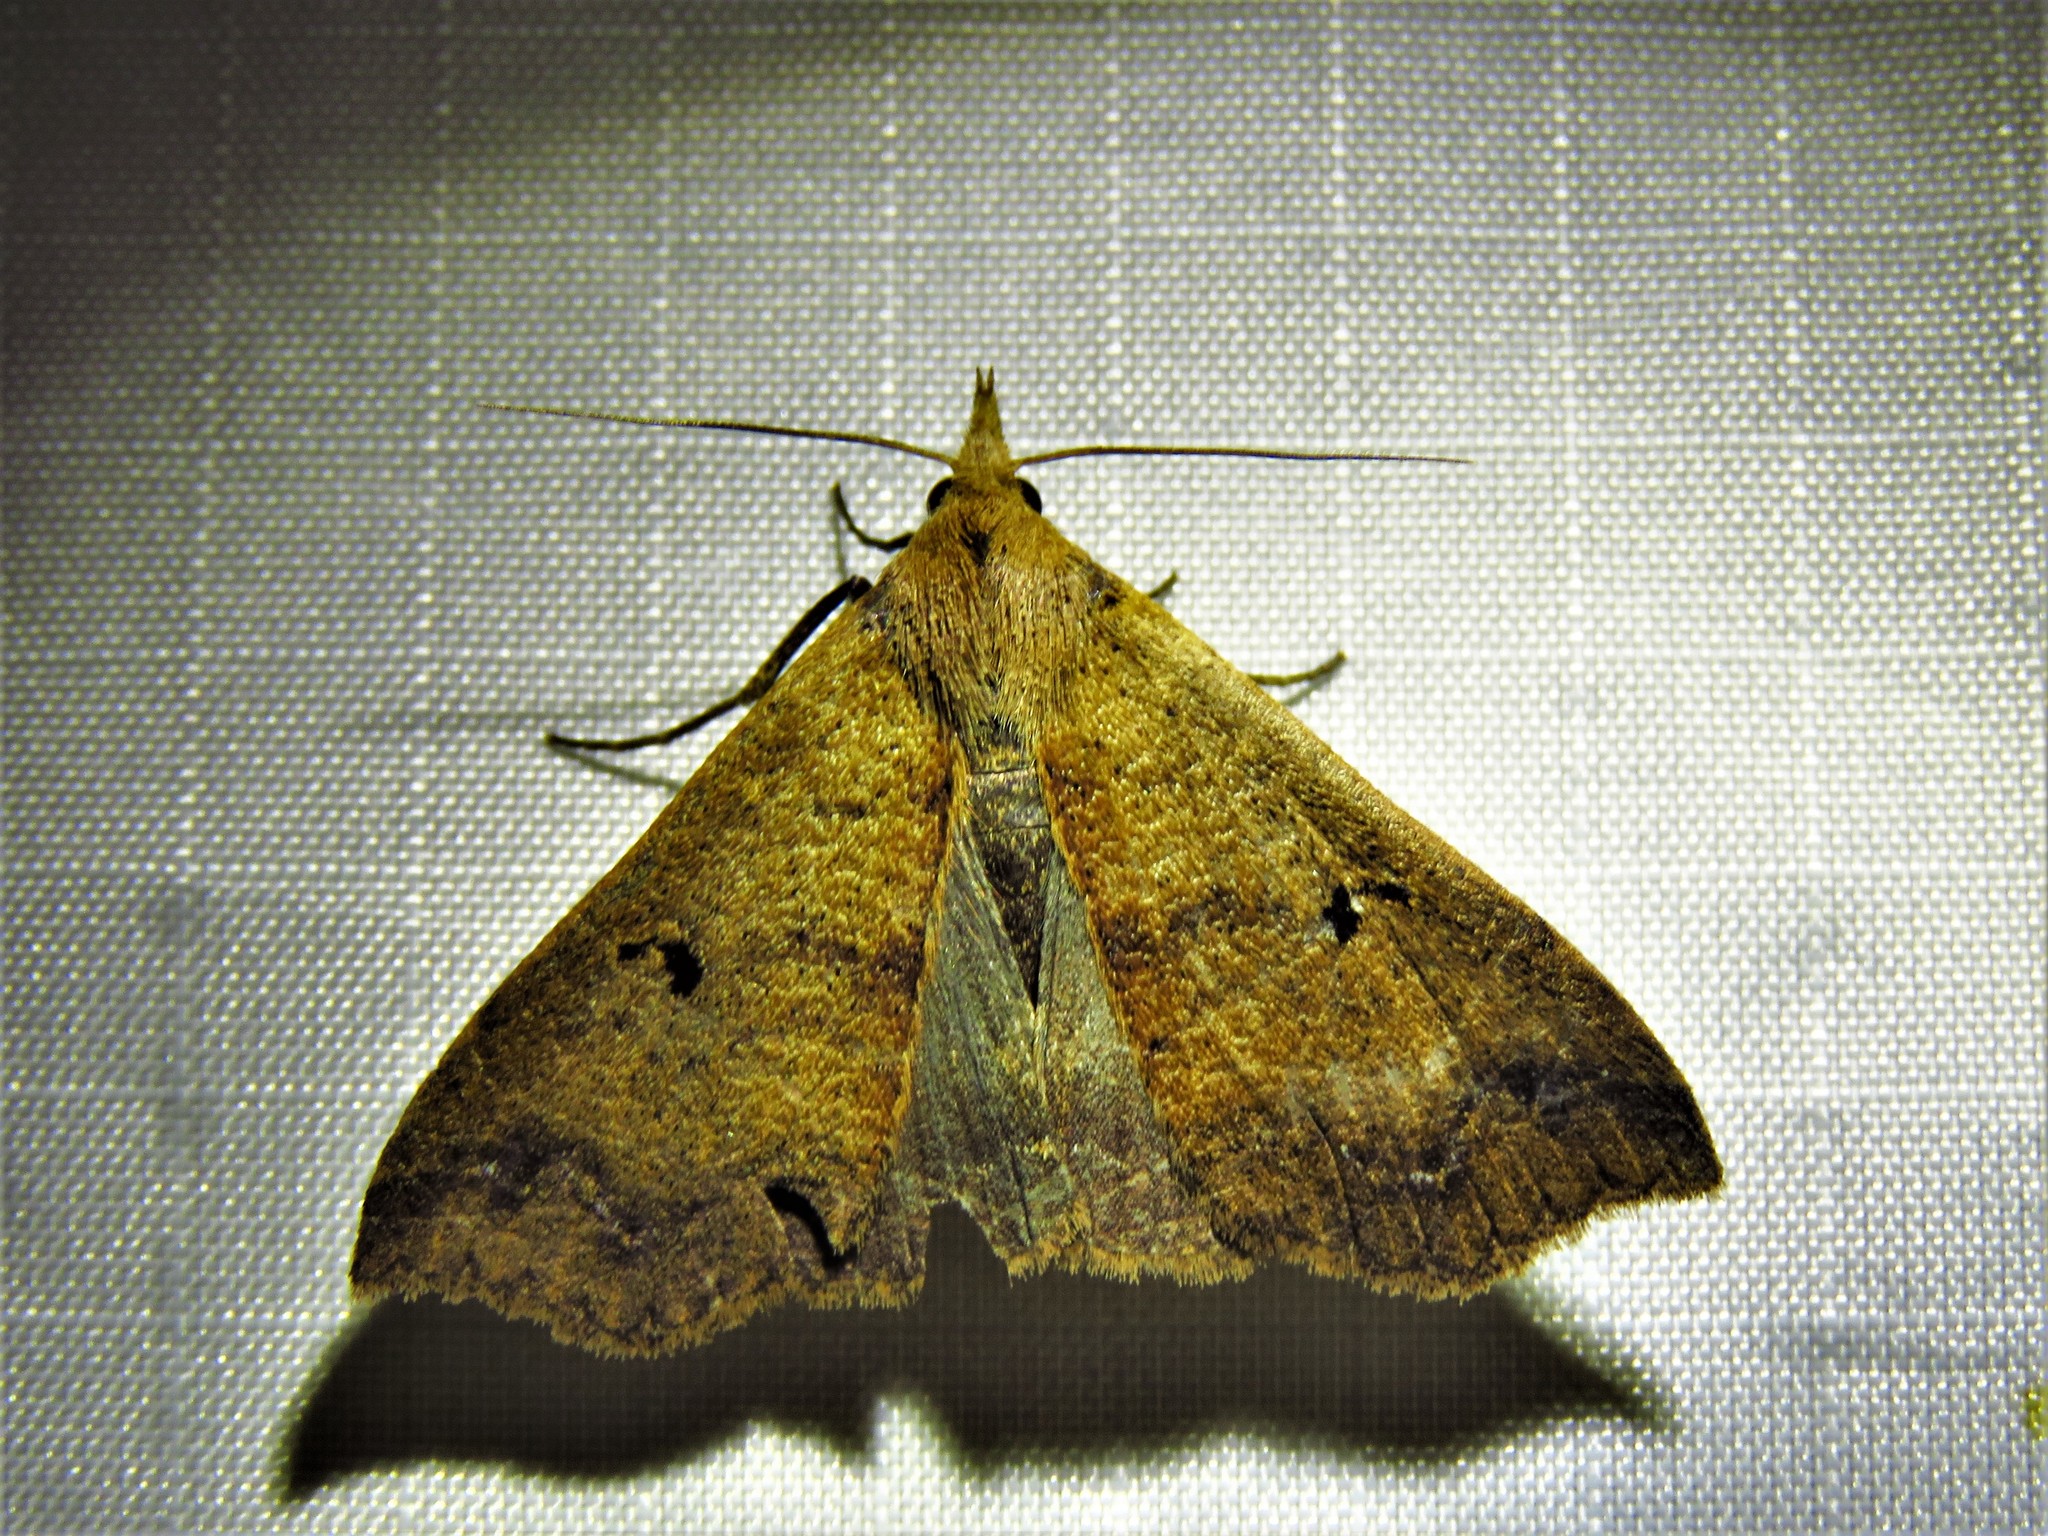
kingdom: Animalia
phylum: Arthropoda
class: Insecta
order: Lepidoptera
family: Erebidae
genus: Renia
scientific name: Renia discoloralis
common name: Discolored renia moth
